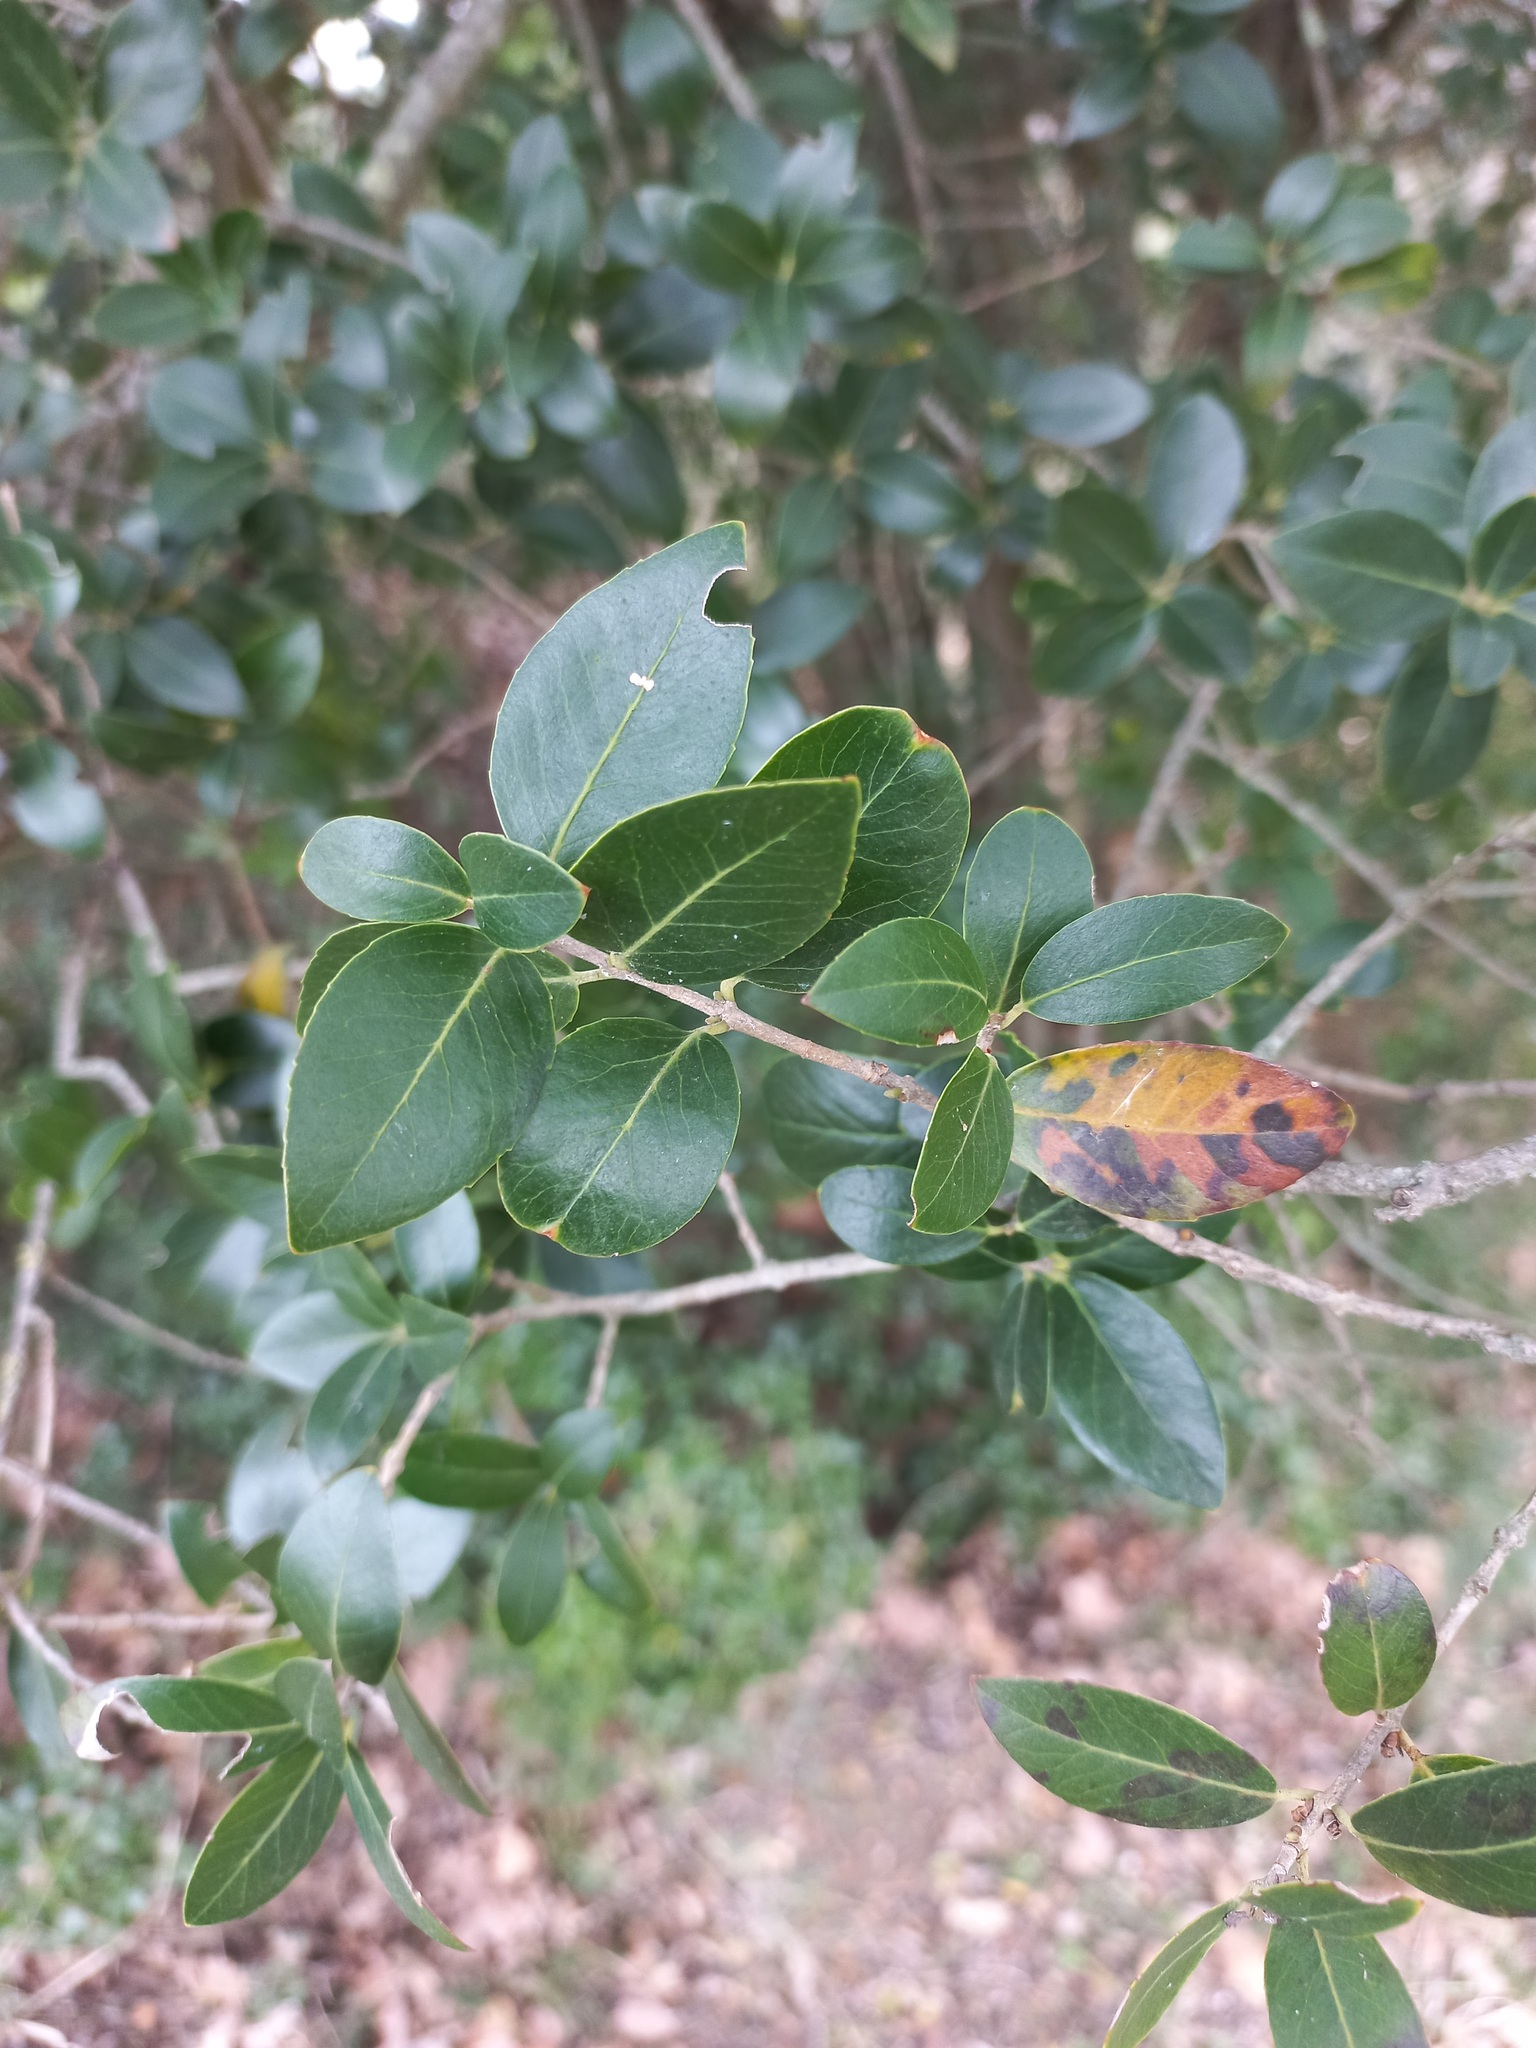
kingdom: Plantae
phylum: Tracheophyta
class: Magnoliopsida
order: Lamiales
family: Oleaceae
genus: Phillyrea
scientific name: Phillyrea latifolia
